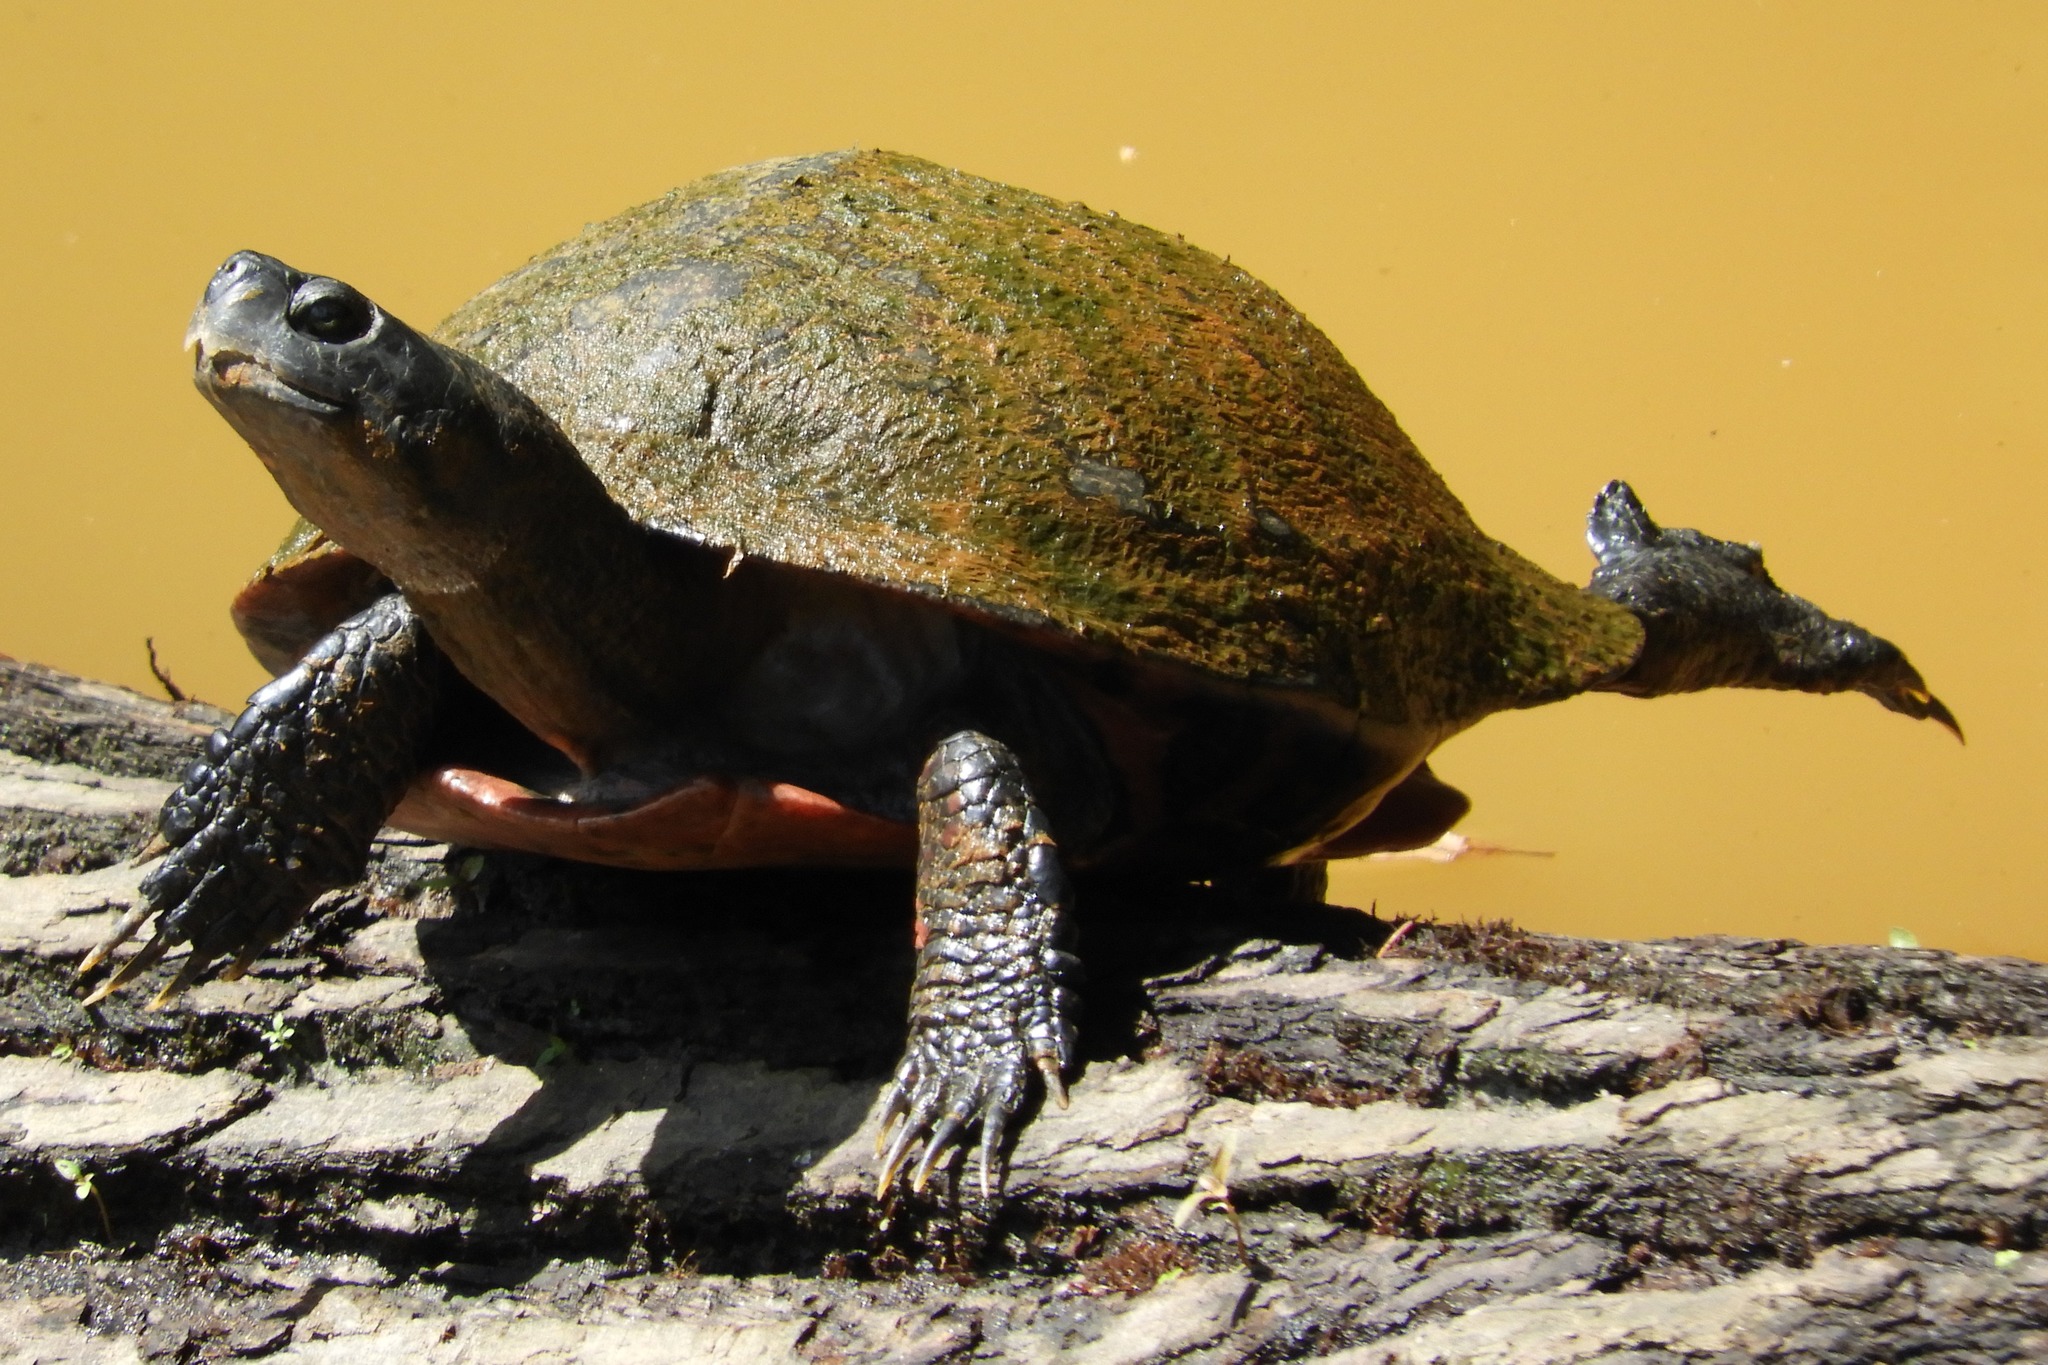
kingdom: Animalia
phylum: Chordata
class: Testudines
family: Emydidae
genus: Pseudemys
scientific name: Pseudemys rubriventris
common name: American red-bellied turtle
